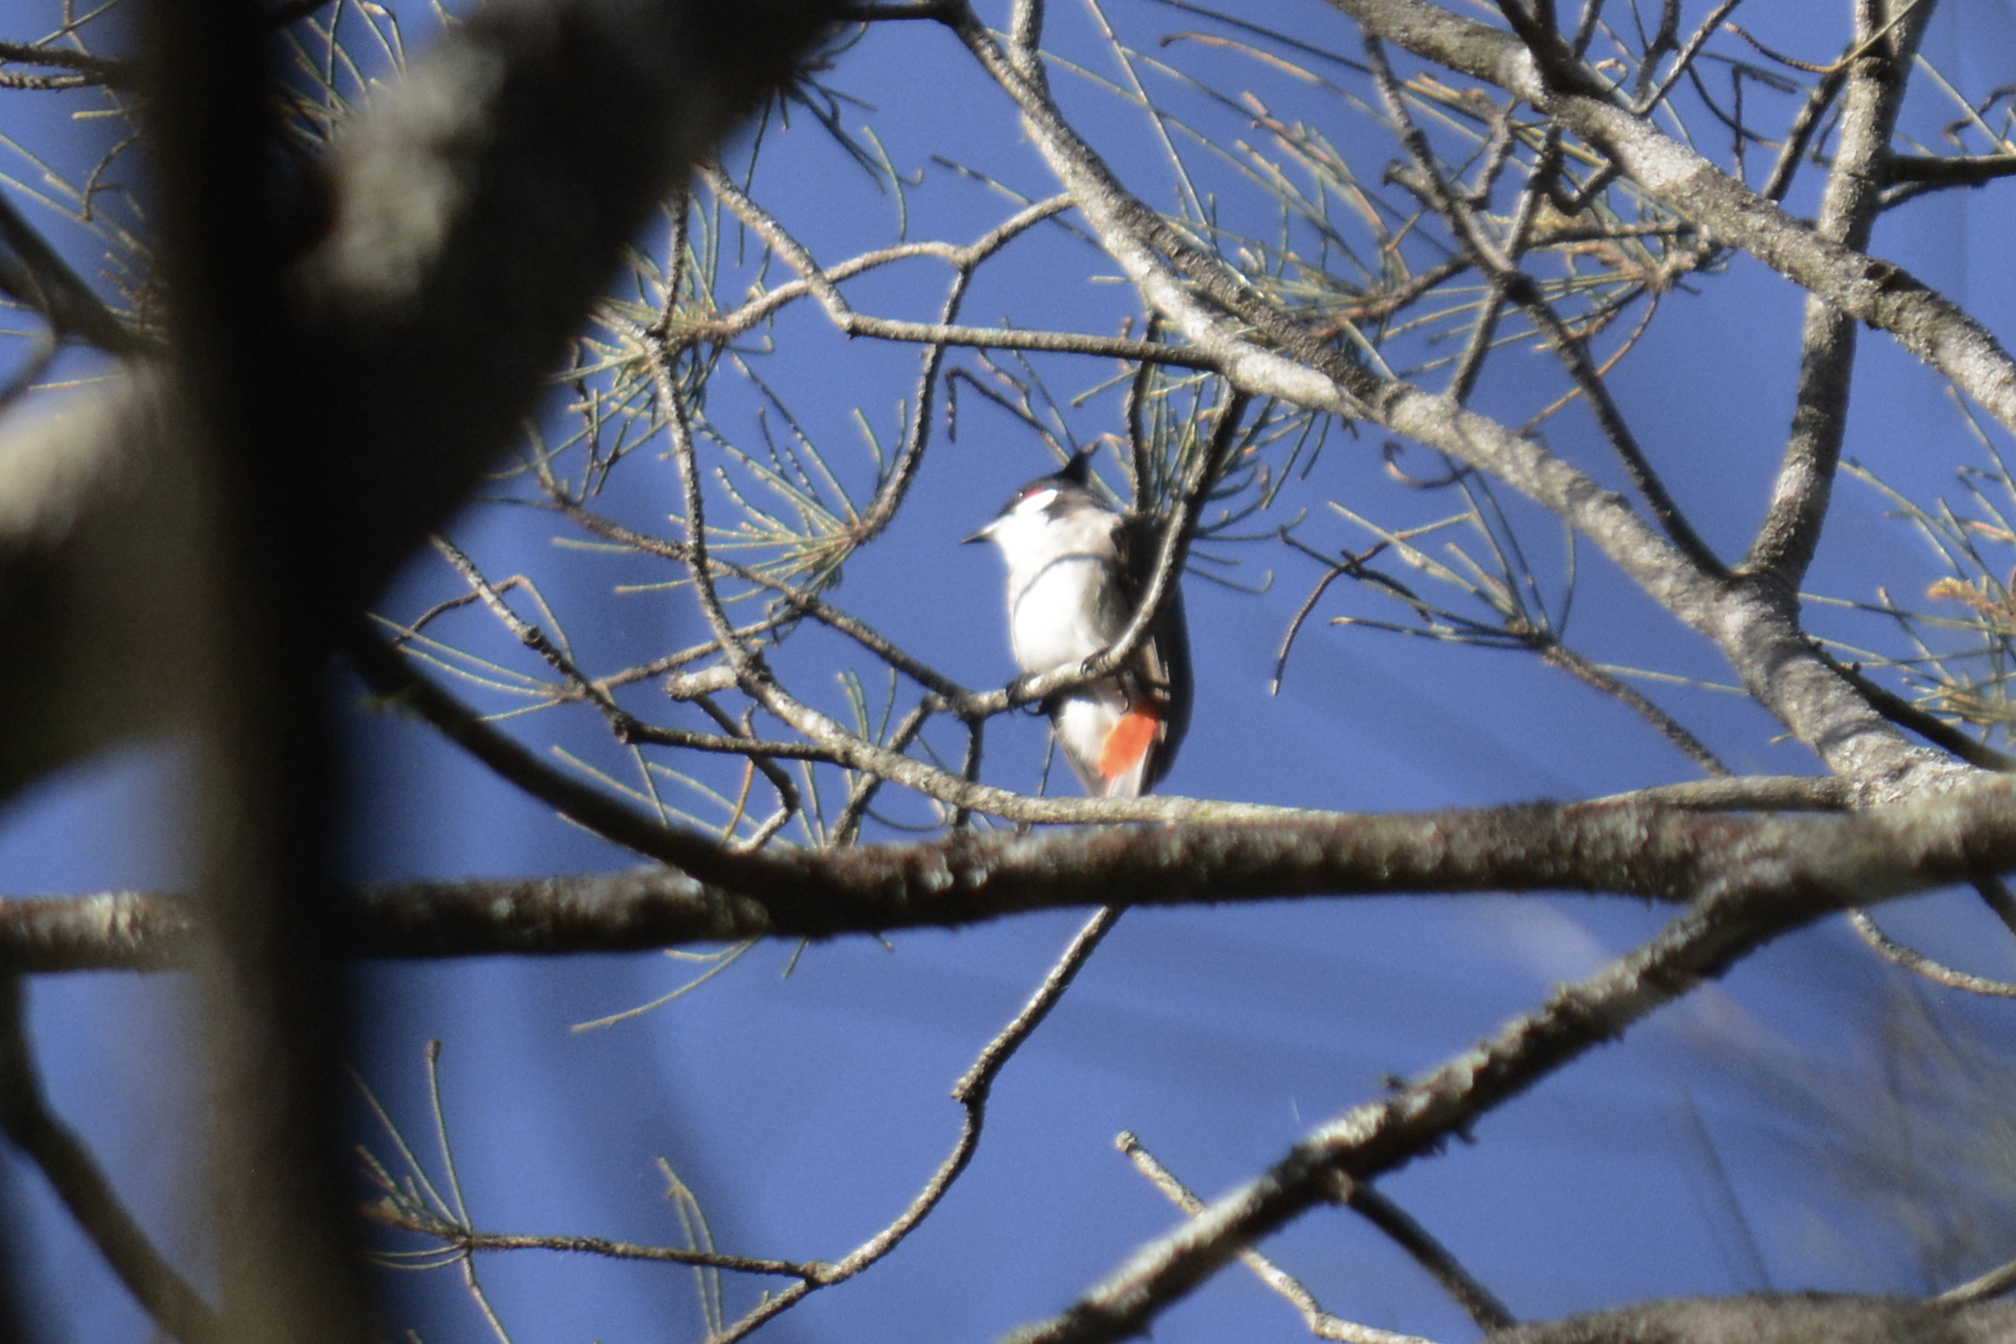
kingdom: Animalia
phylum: Chordata
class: Aves
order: Passeriformes
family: Pycnonotidae
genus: Pycnonotus
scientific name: Pycnonotus jocosus
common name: Red-whiskered bulbul
